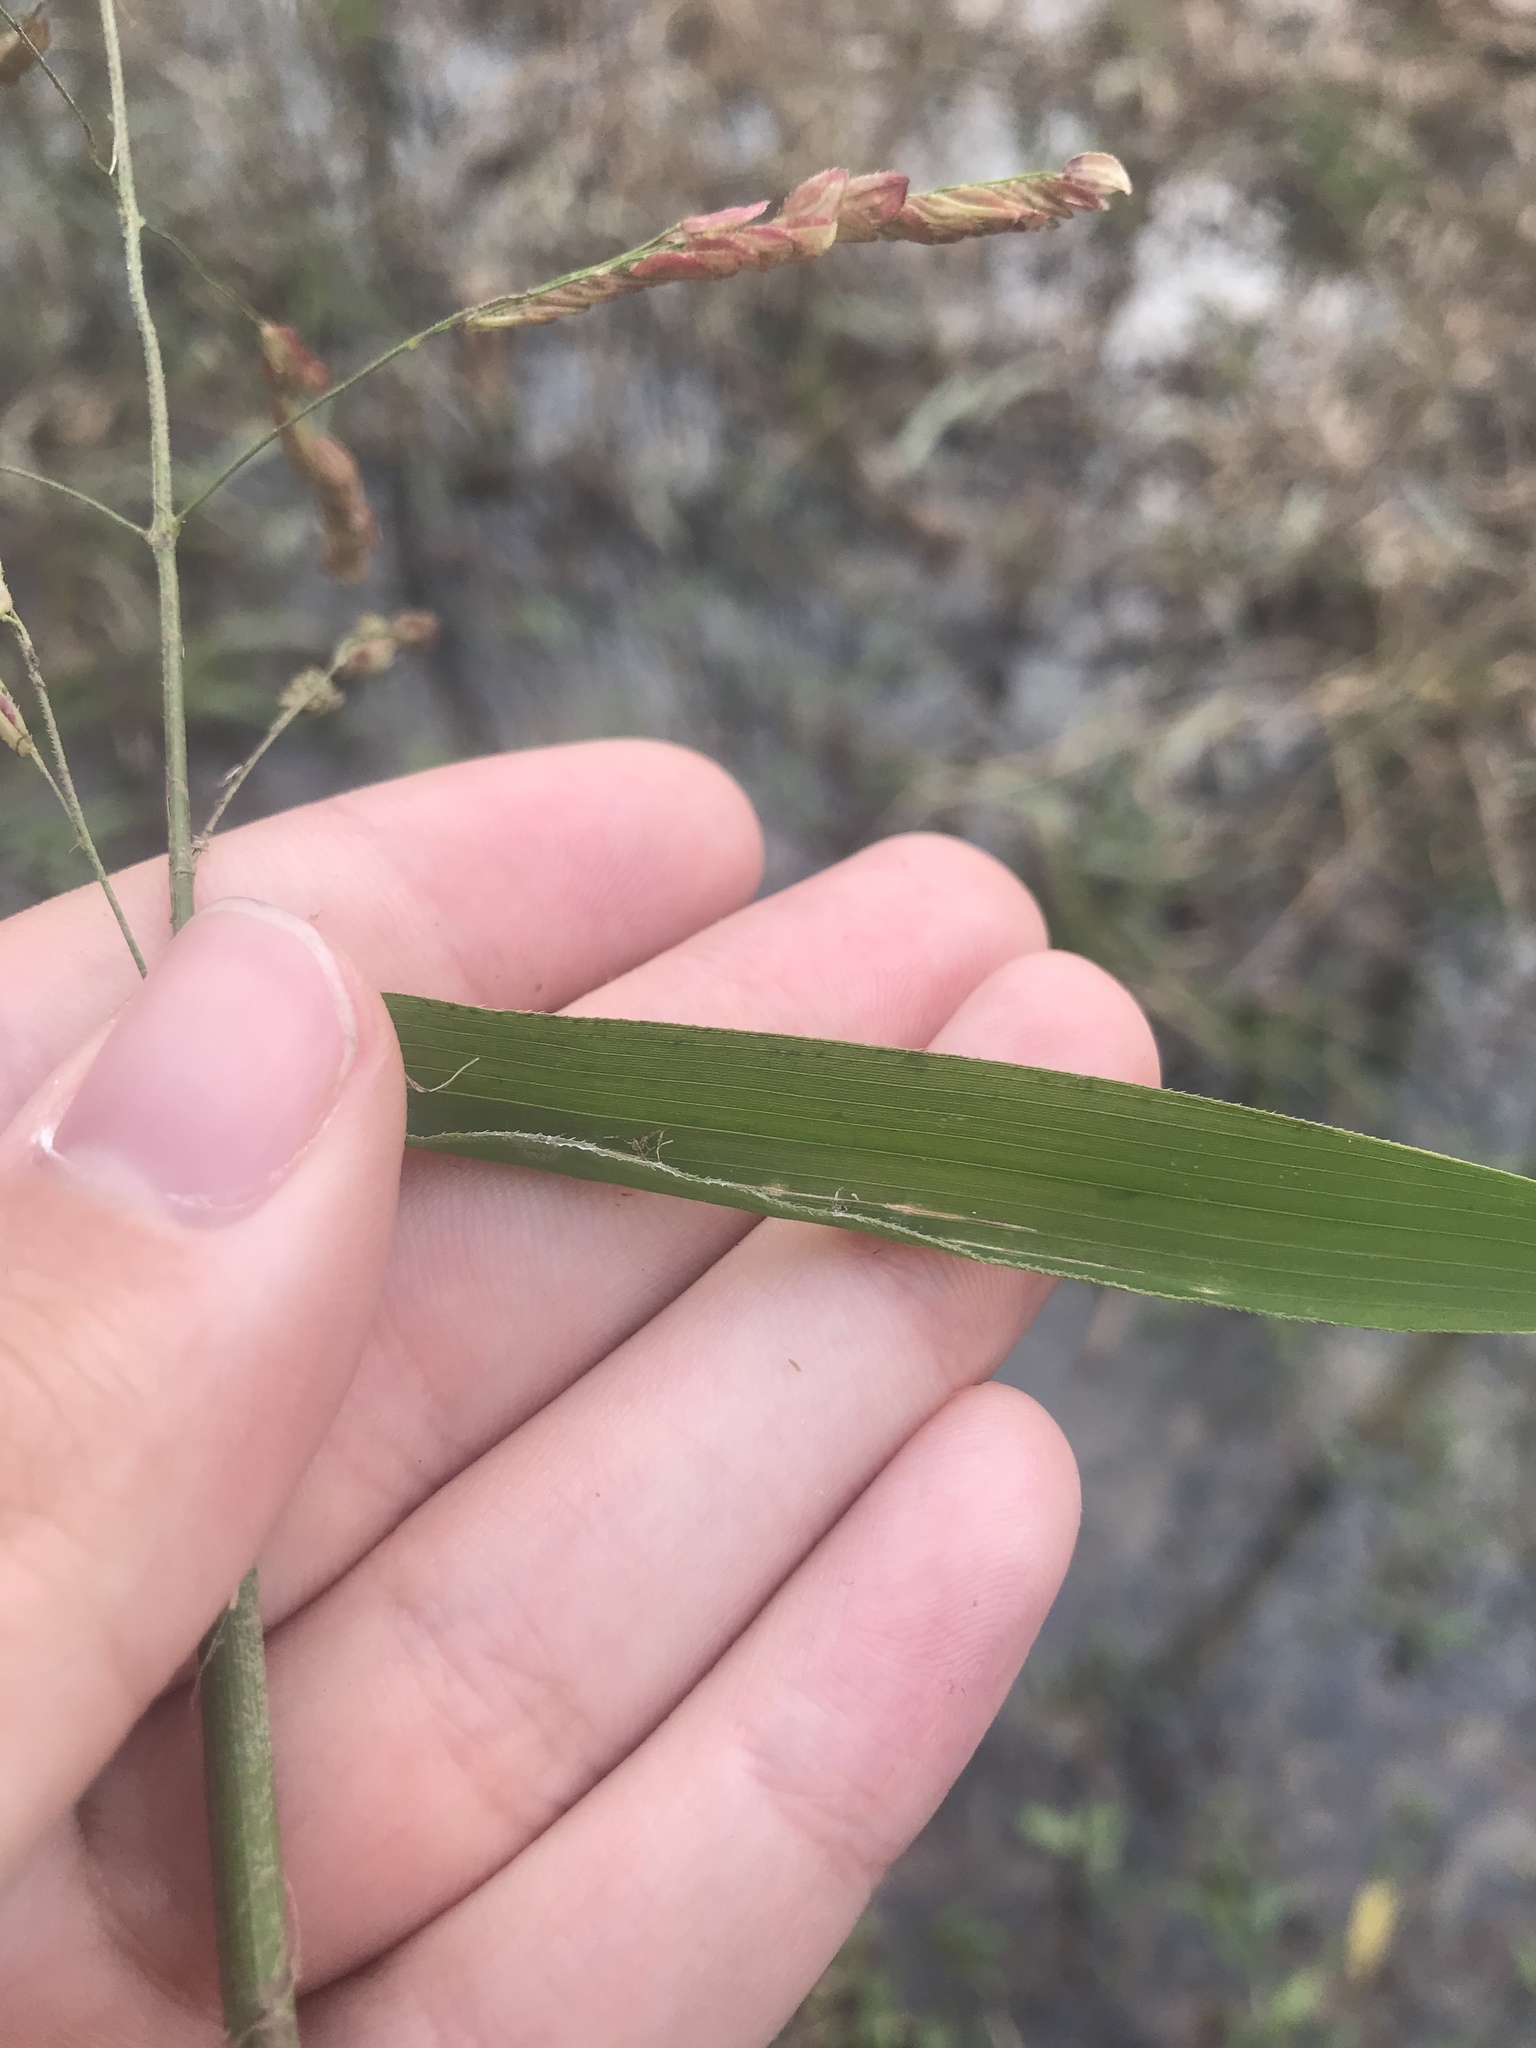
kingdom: Plantae
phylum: Tracheophyta
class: Liliopsida
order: Poales
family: Poaceae
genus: Leersia
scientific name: Leersia lenticularis
